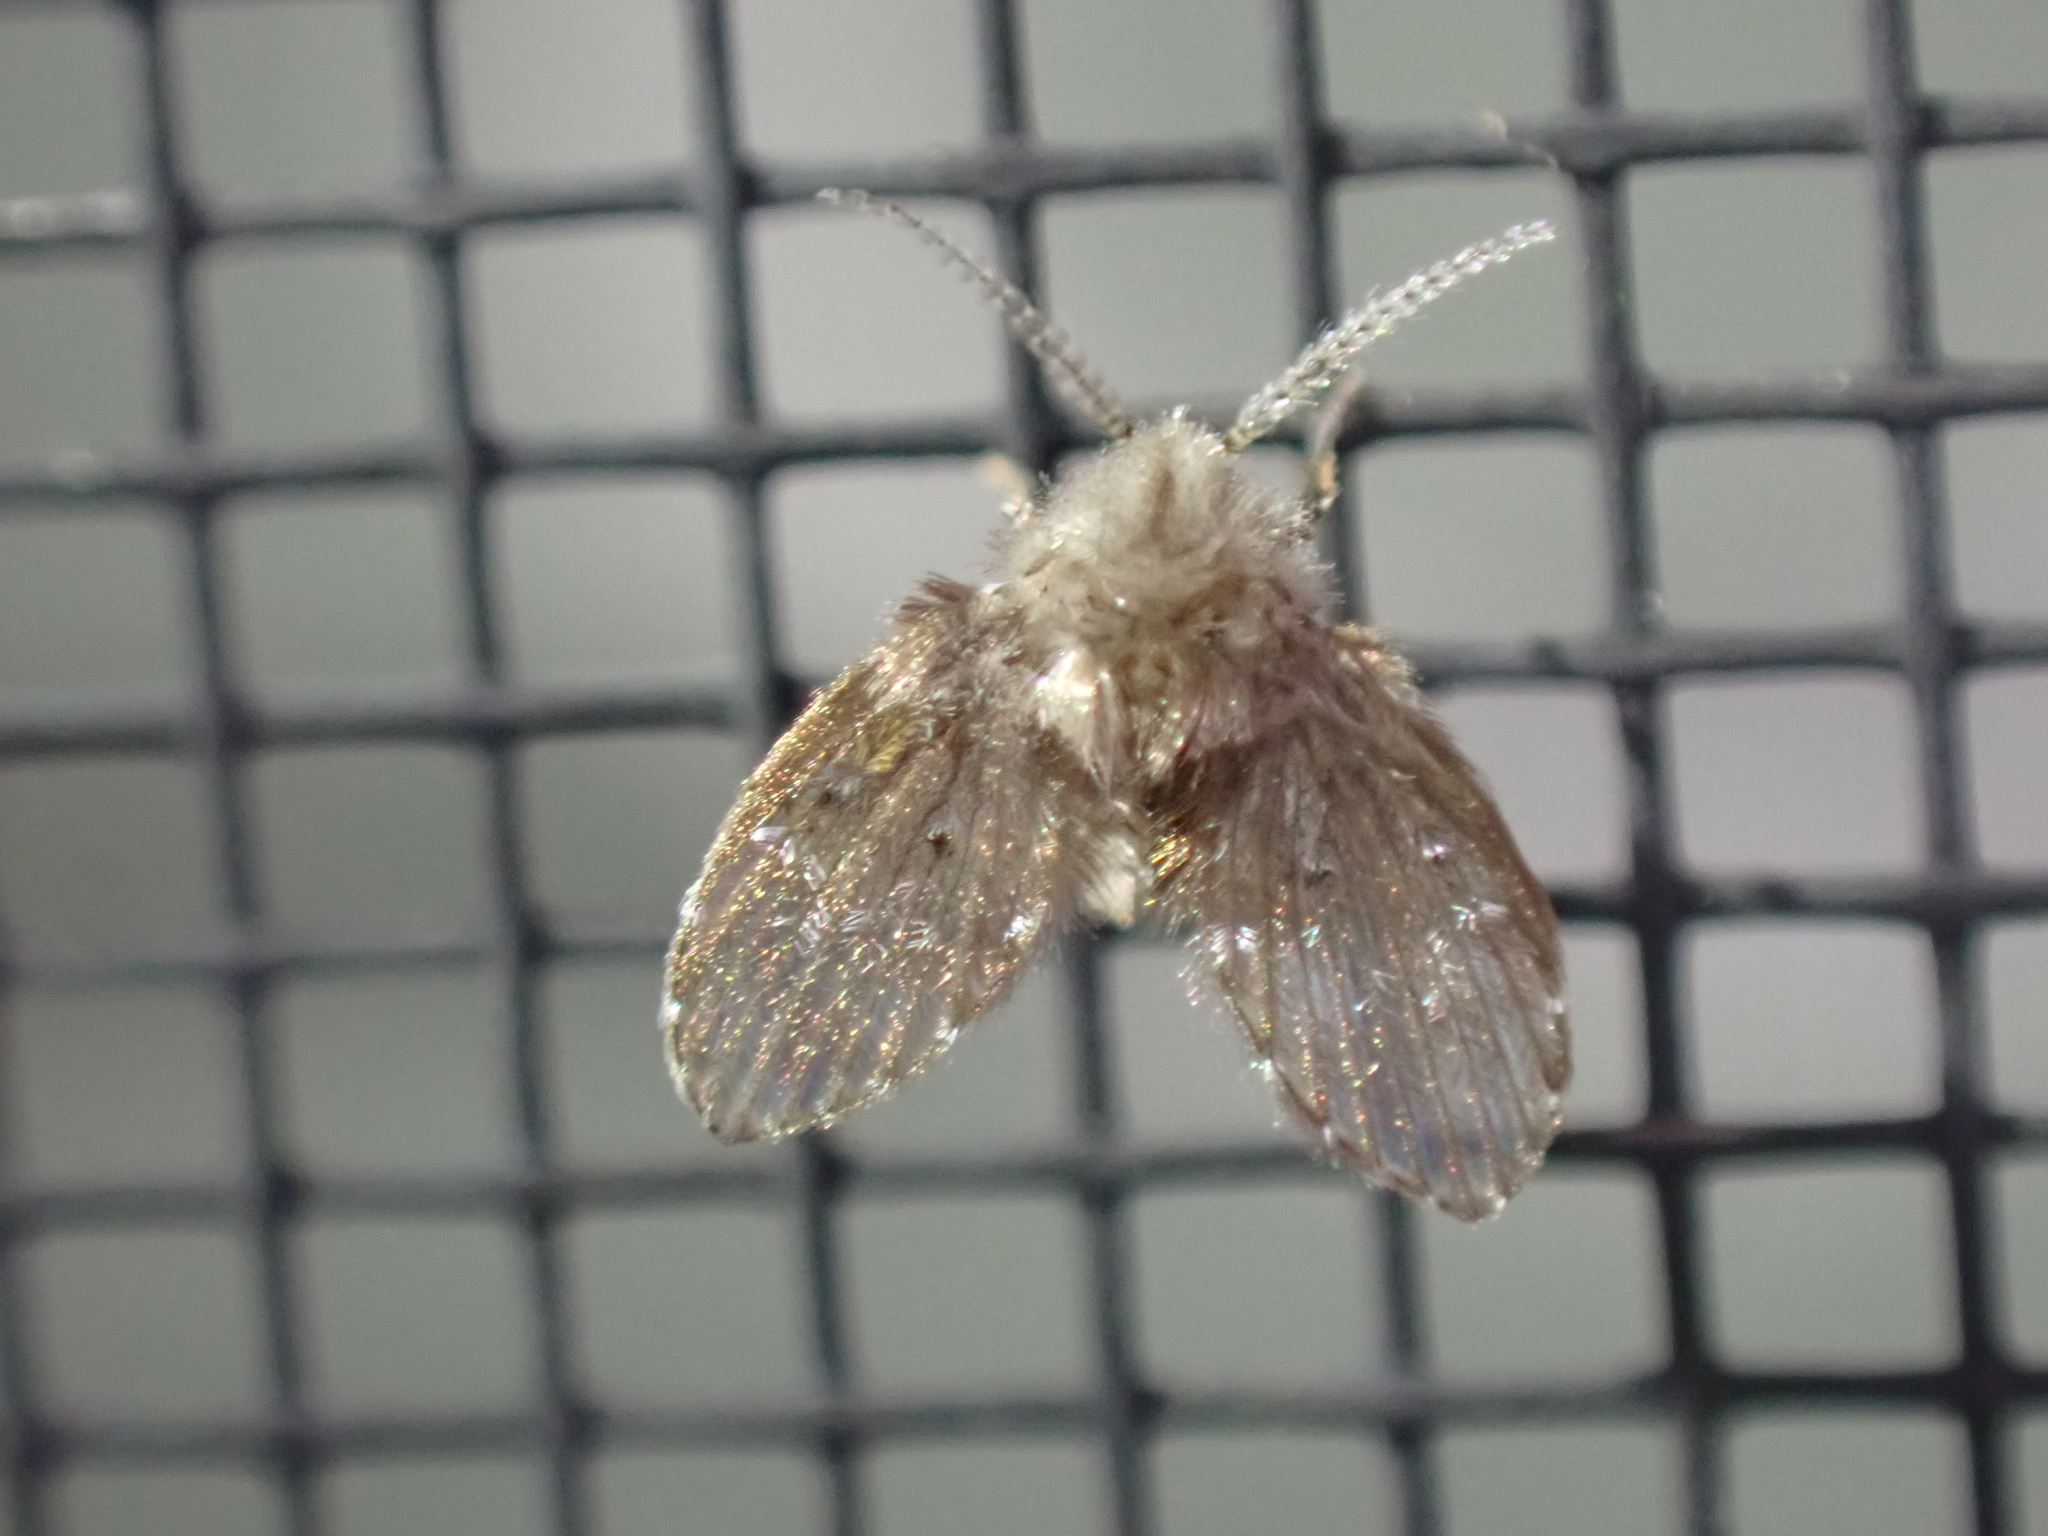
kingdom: Animalia
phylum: Arthropoda
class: Insecta
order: Diptera
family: Psychodidae
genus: Clogmia
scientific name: Clogmia albipunctatus
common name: White-spotted moth fly
